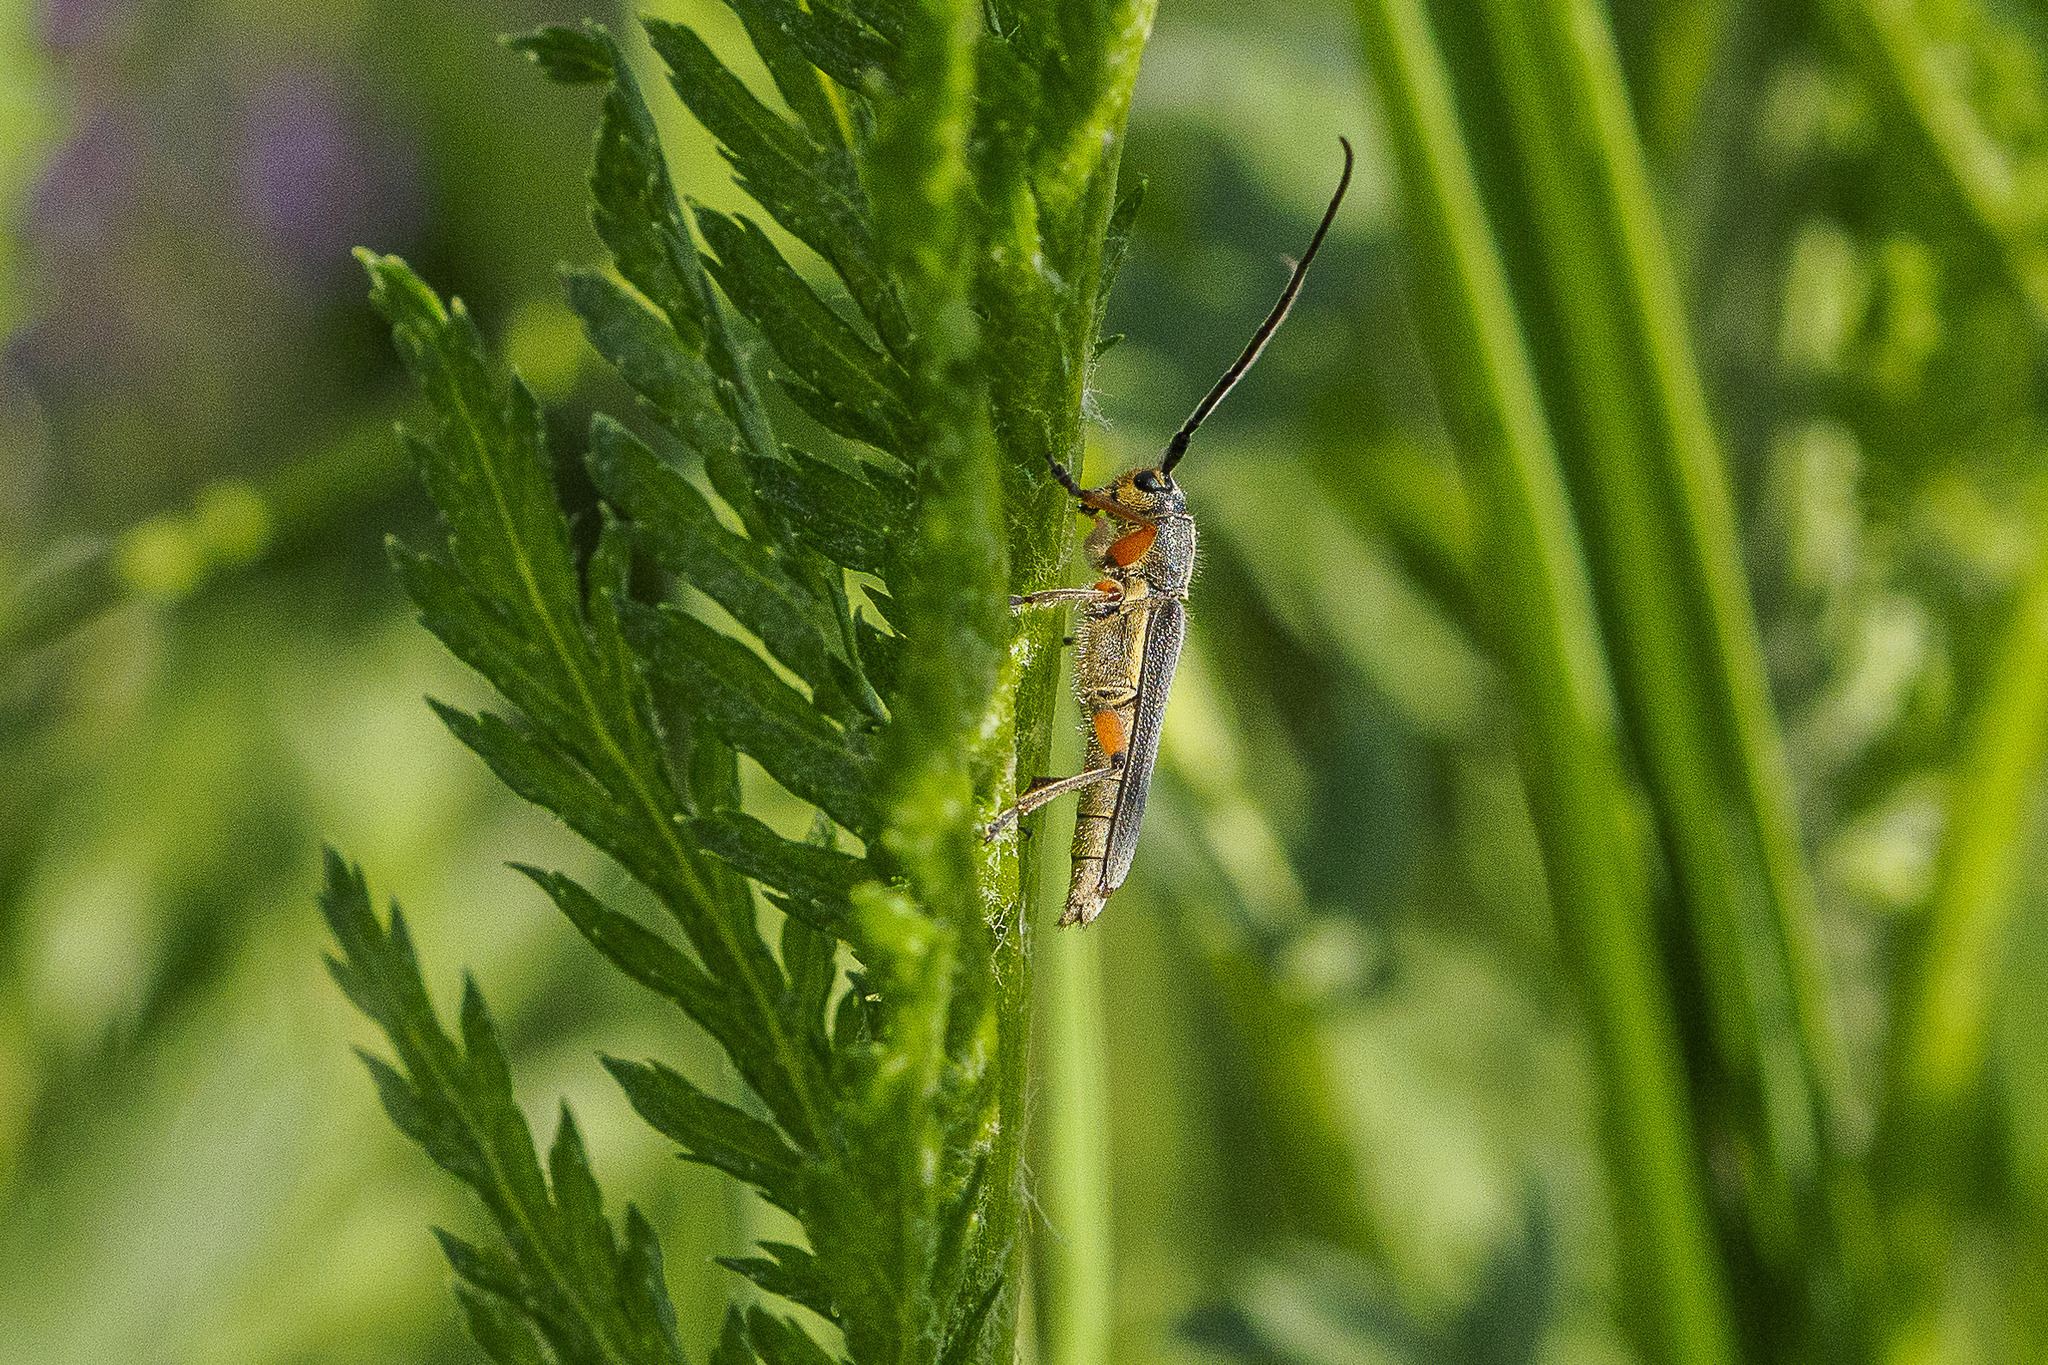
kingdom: Animalia
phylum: Arthropoda
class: Insecta
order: Coleoptera
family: Cerambycidae
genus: Phytoecia
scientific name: Phytoecia icterica
